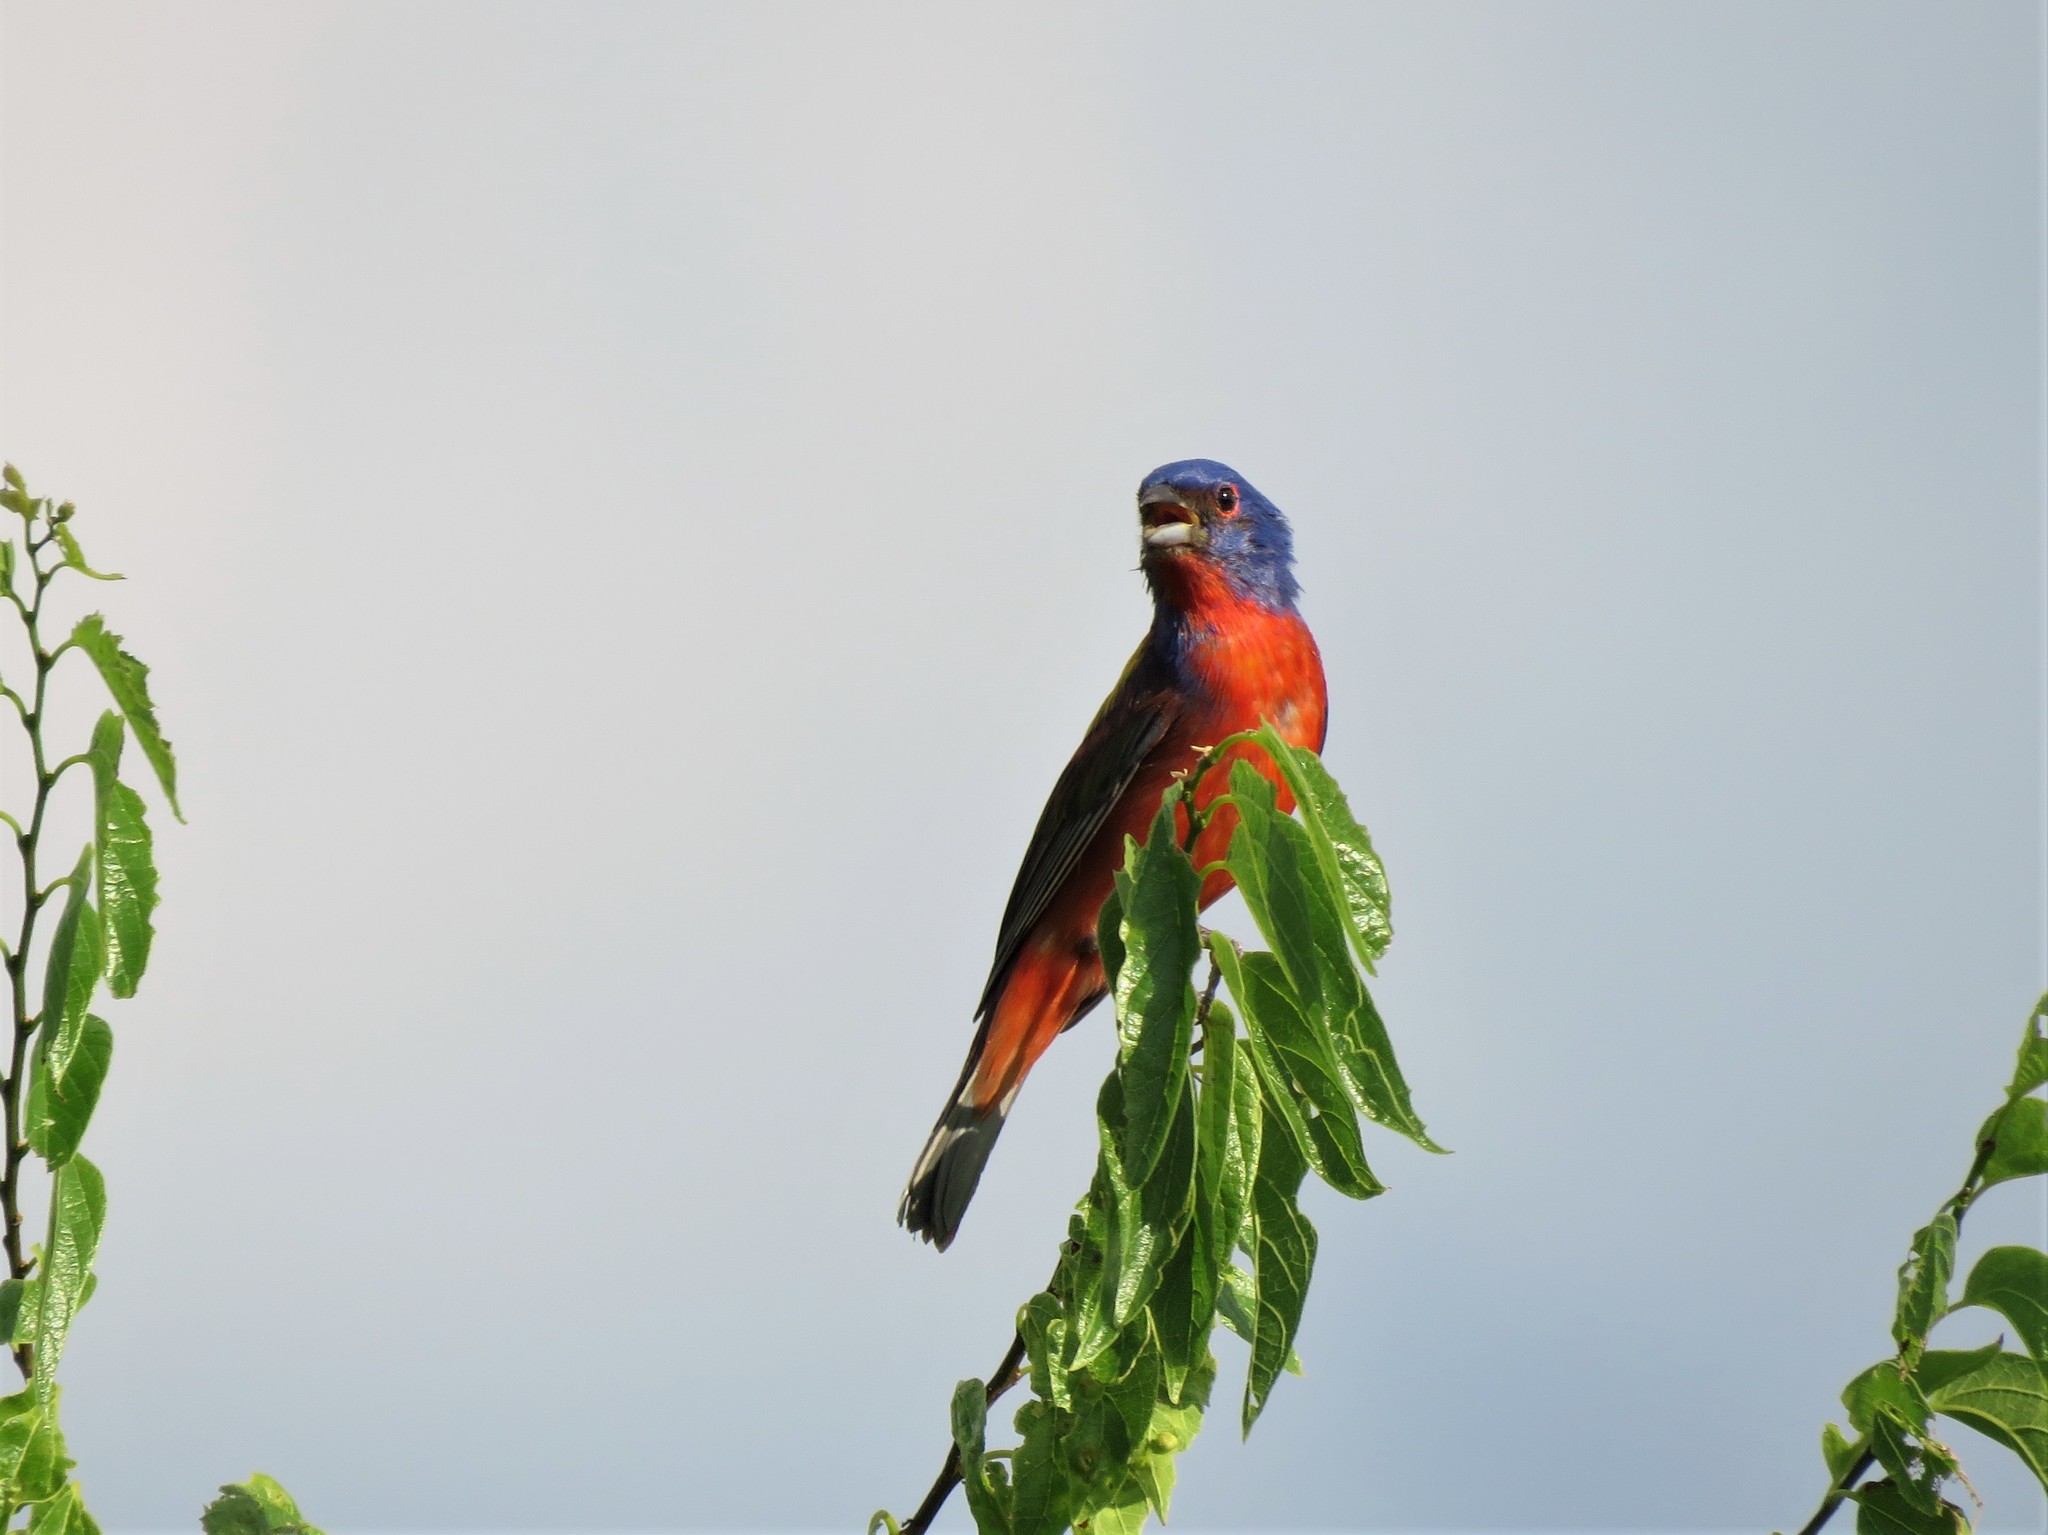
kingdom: Animalia
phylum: Chordata
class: Aves
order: Passeriformes
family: Cardinalidae
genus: Passerina
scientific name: Passerina ciris
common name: Painted bunting
